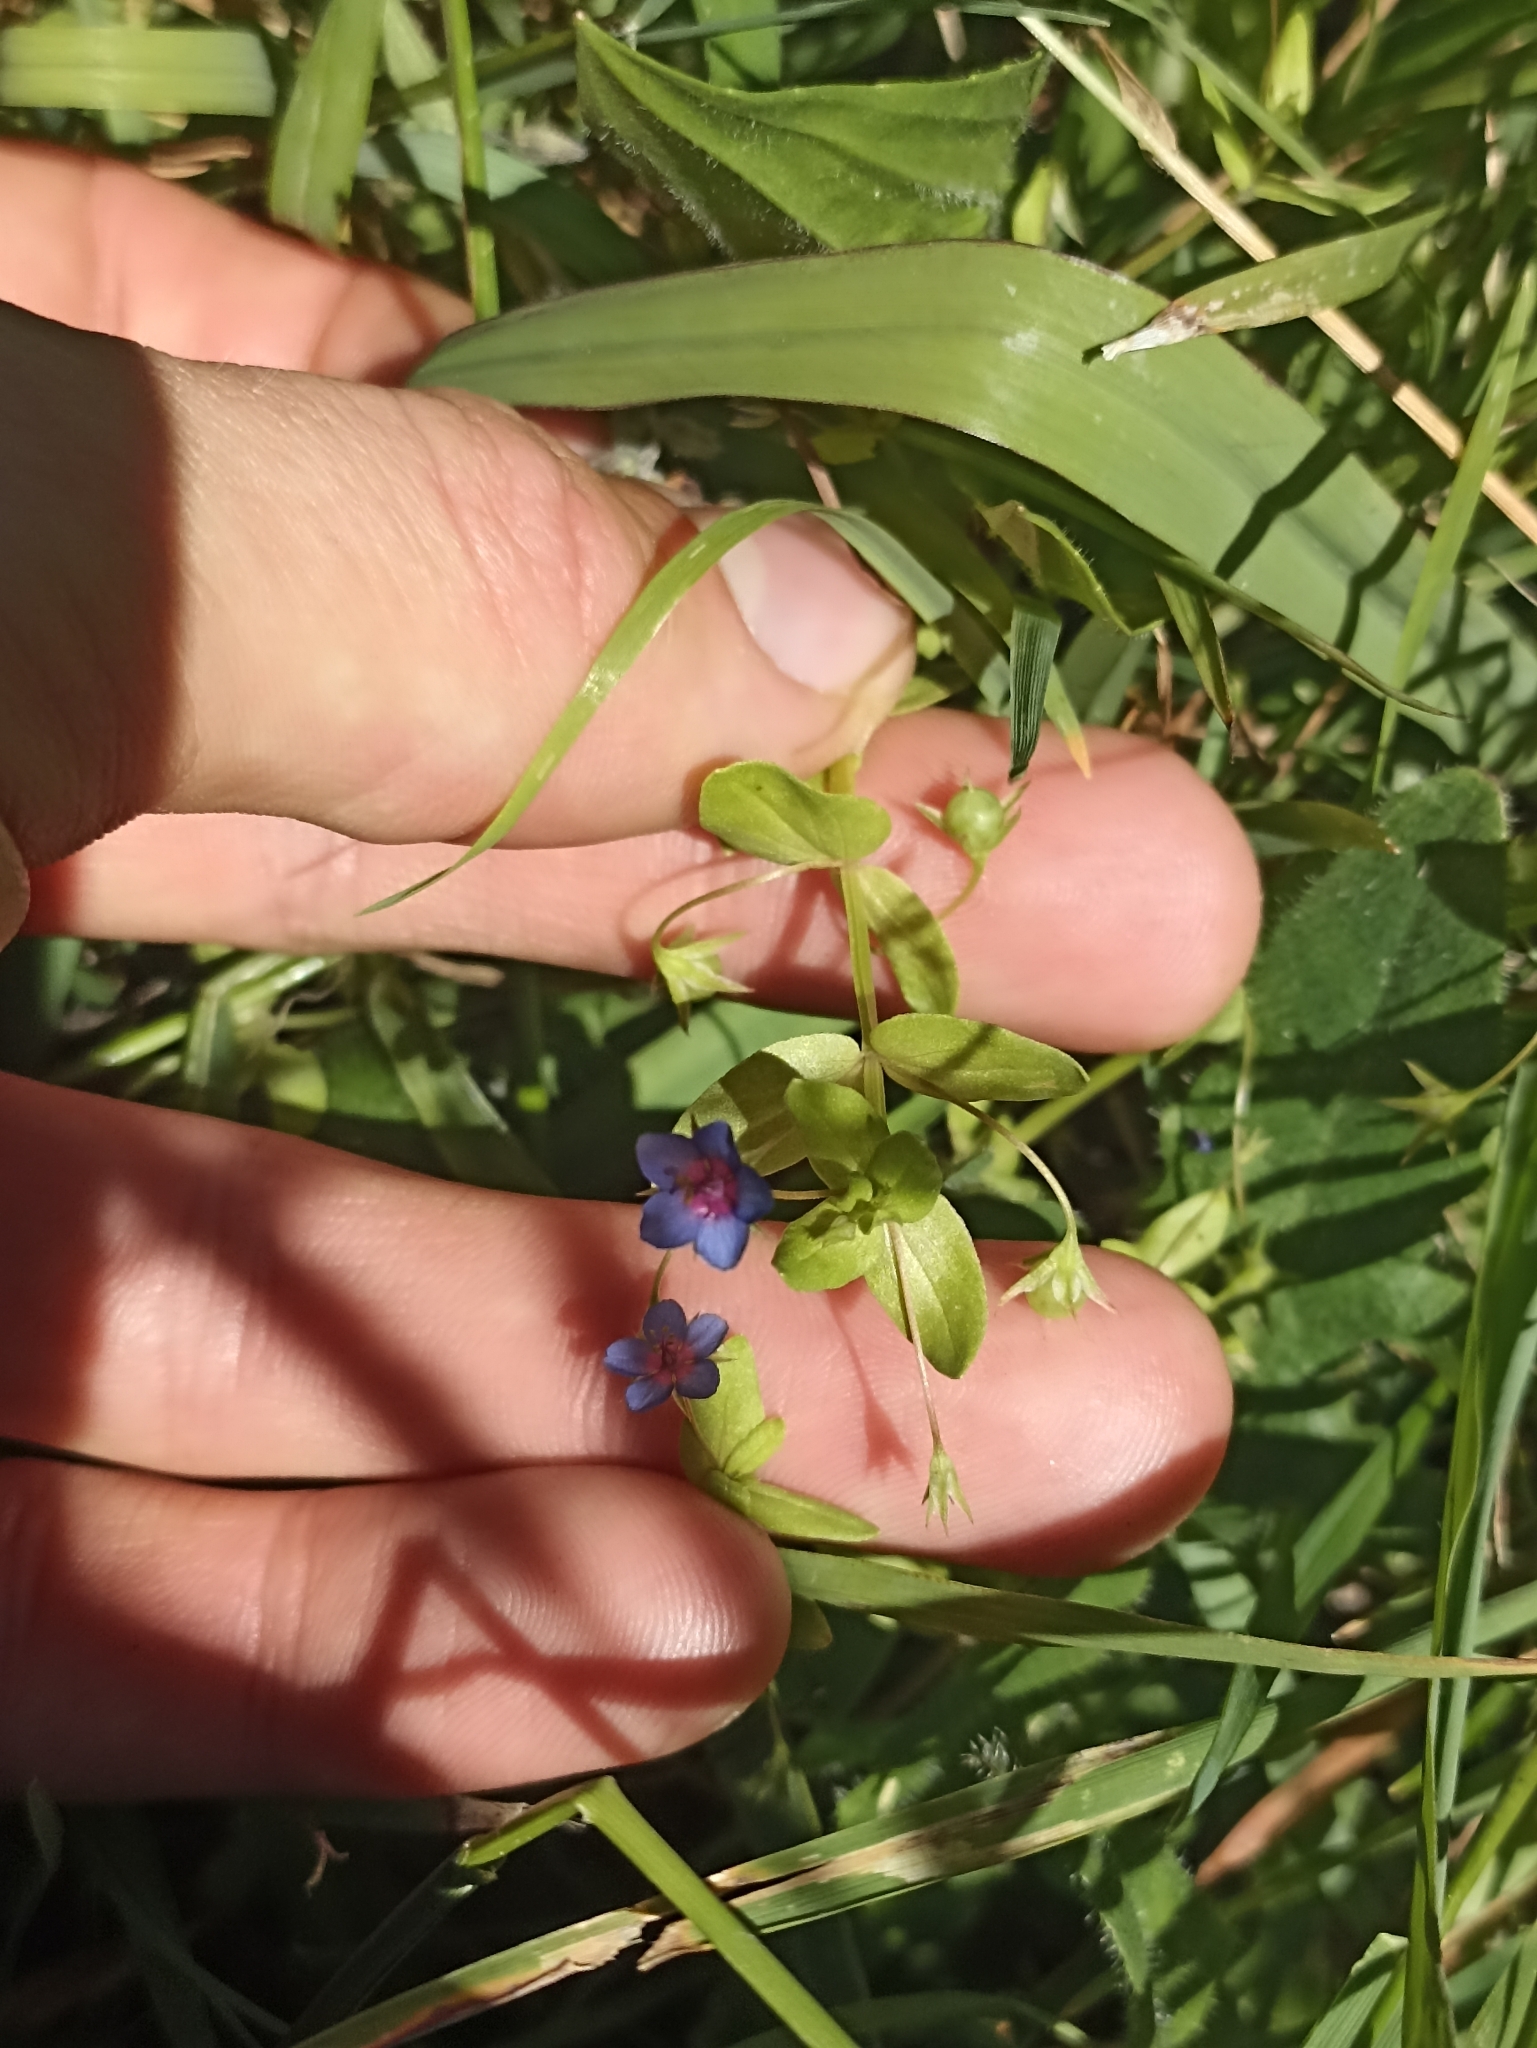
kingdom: Plantae
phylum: Tracheophyta
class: Magnoliopsida
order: Ericales
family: Primulaceae
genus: Lysimachia
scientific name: Lysimachia loeflingii
